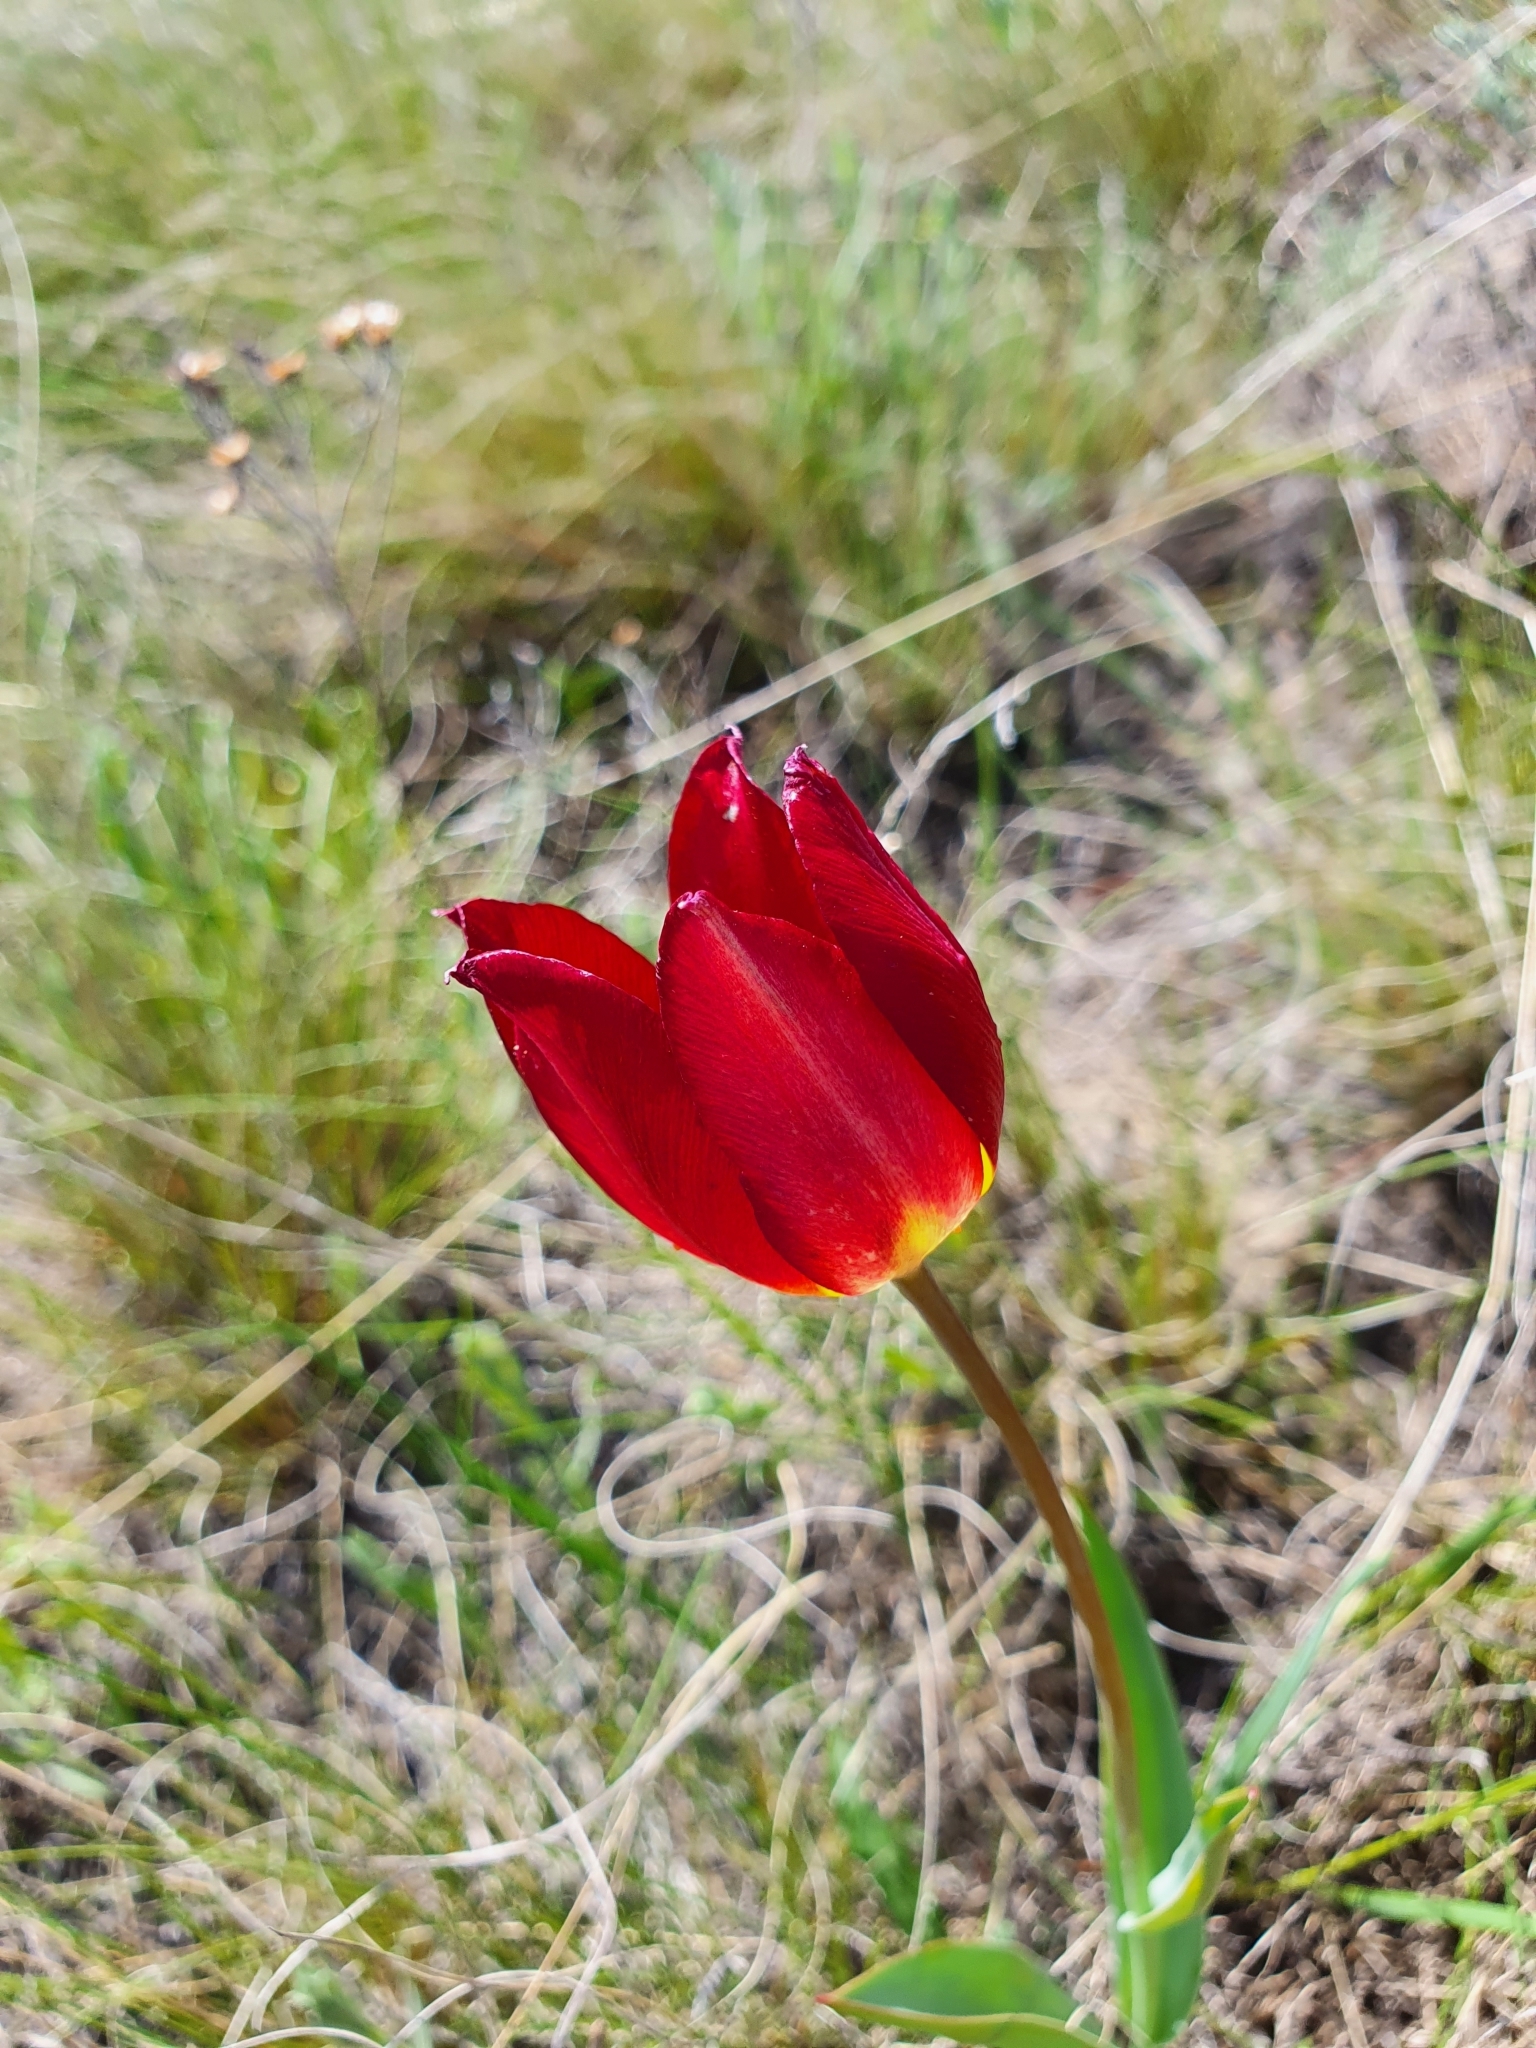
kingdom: Plantae
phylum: Tracheophyta
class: Liliopsida
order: Liliales
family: Liliaceae
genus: Tulipa
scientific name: Tulipa suaveolens
